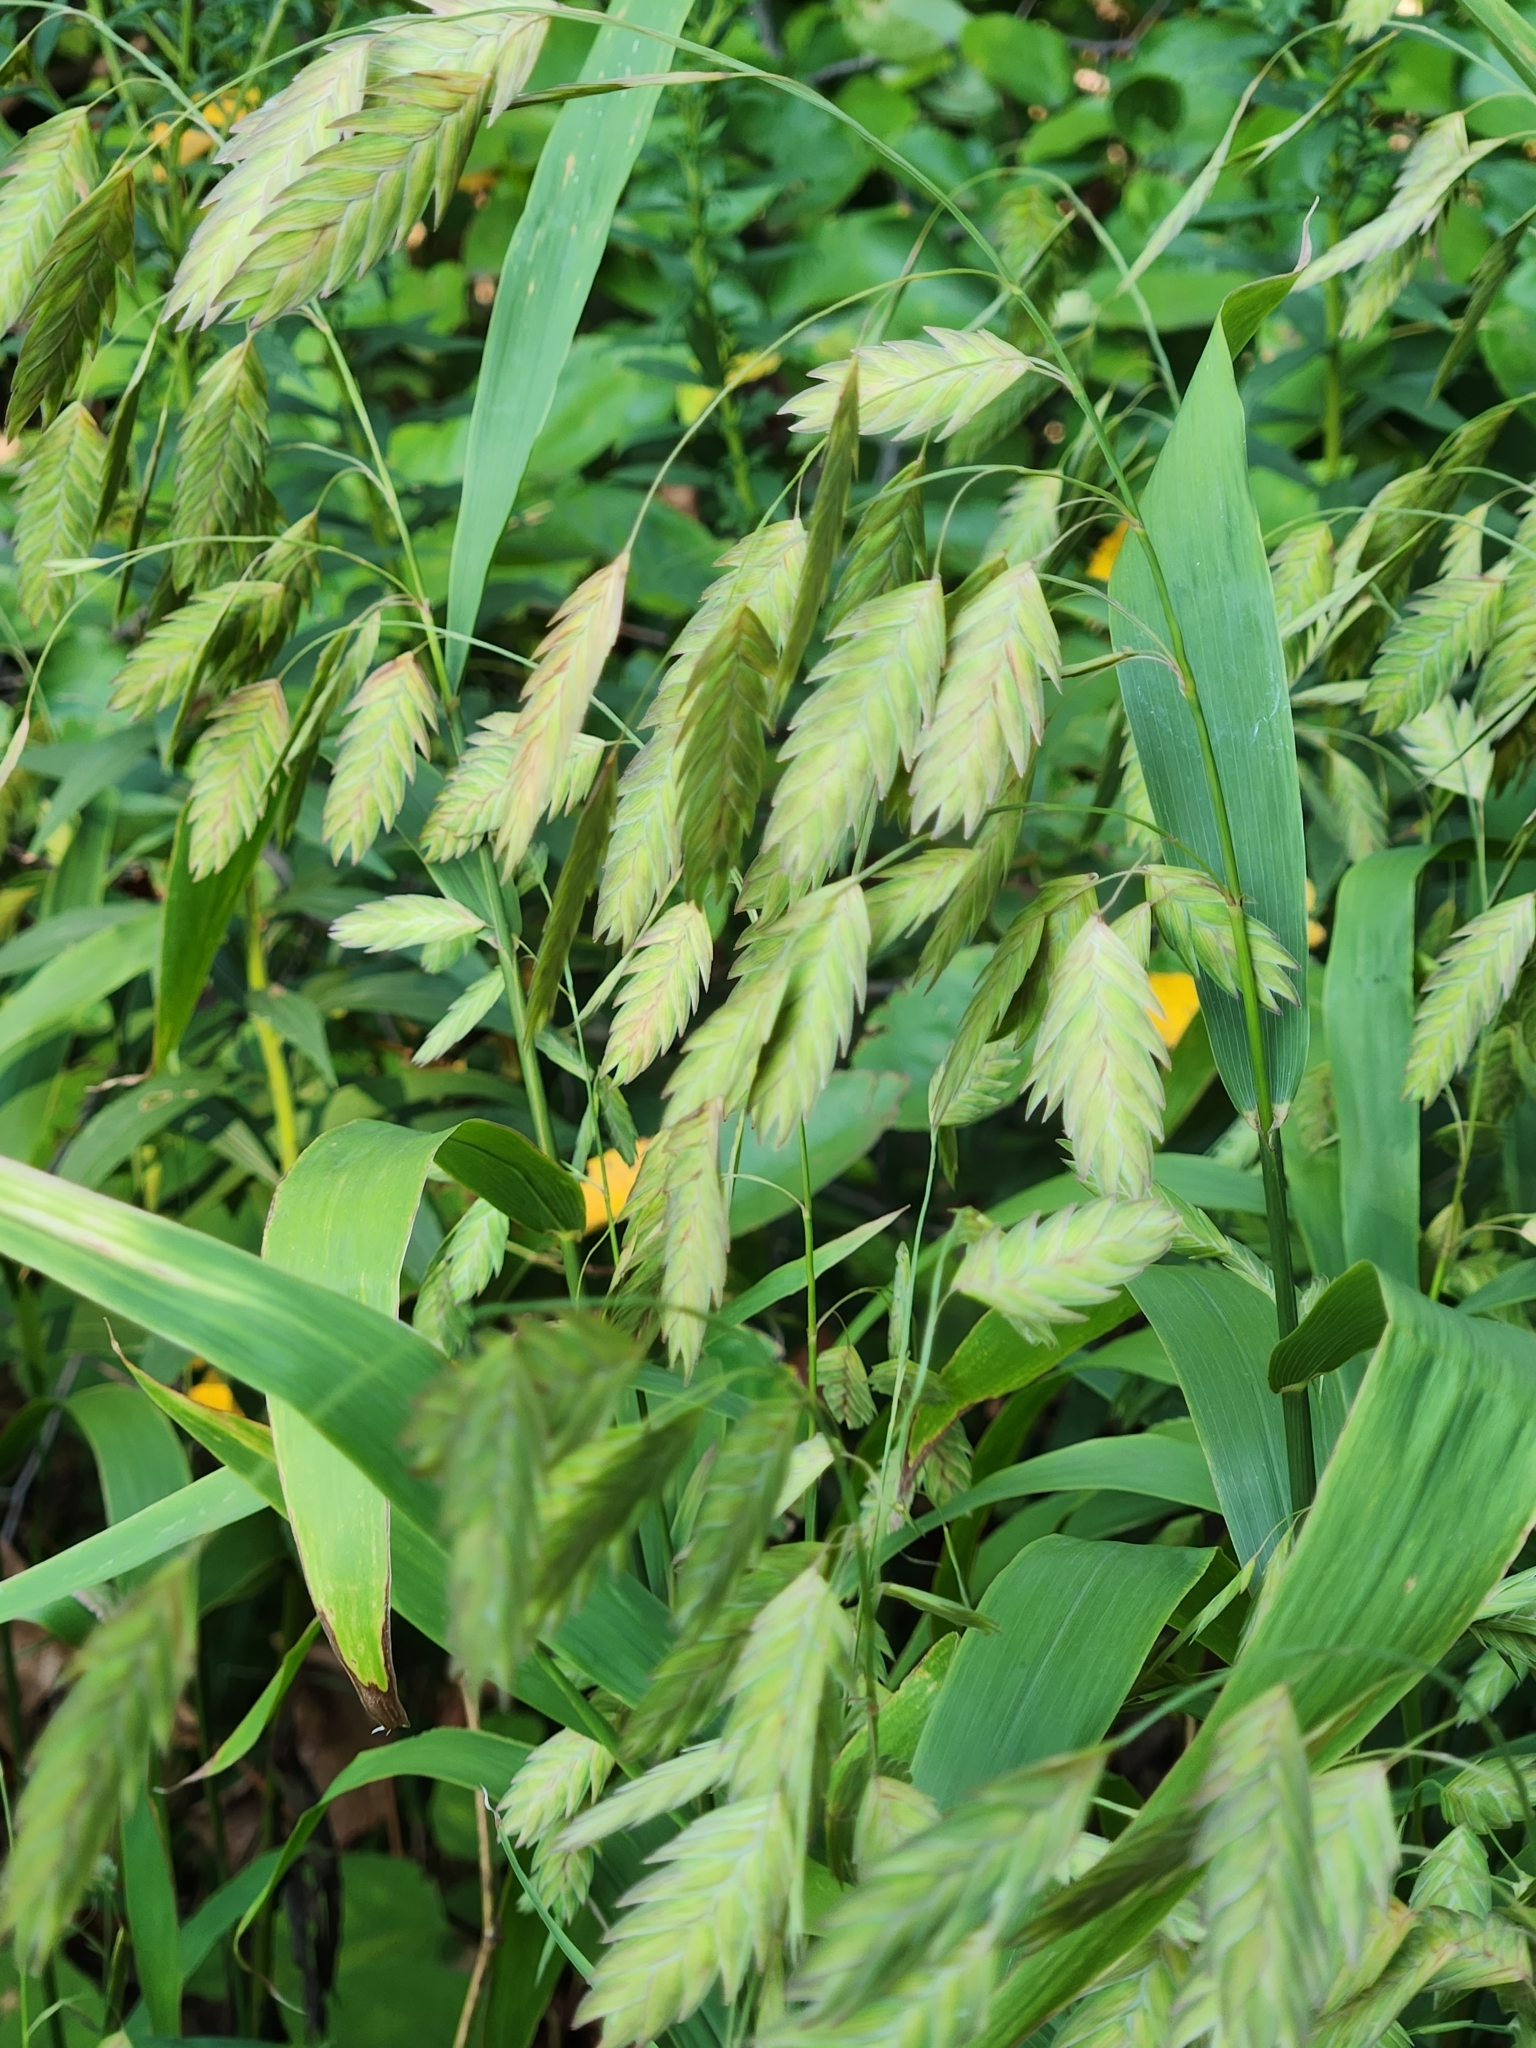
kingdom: Plantae
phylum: Tracheophyta
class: Liliopsida
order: Poales
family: Poaceae
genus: Chasmanthium
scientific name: Chasmanthium latifolium
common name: Broad-leaved chasmanthium
